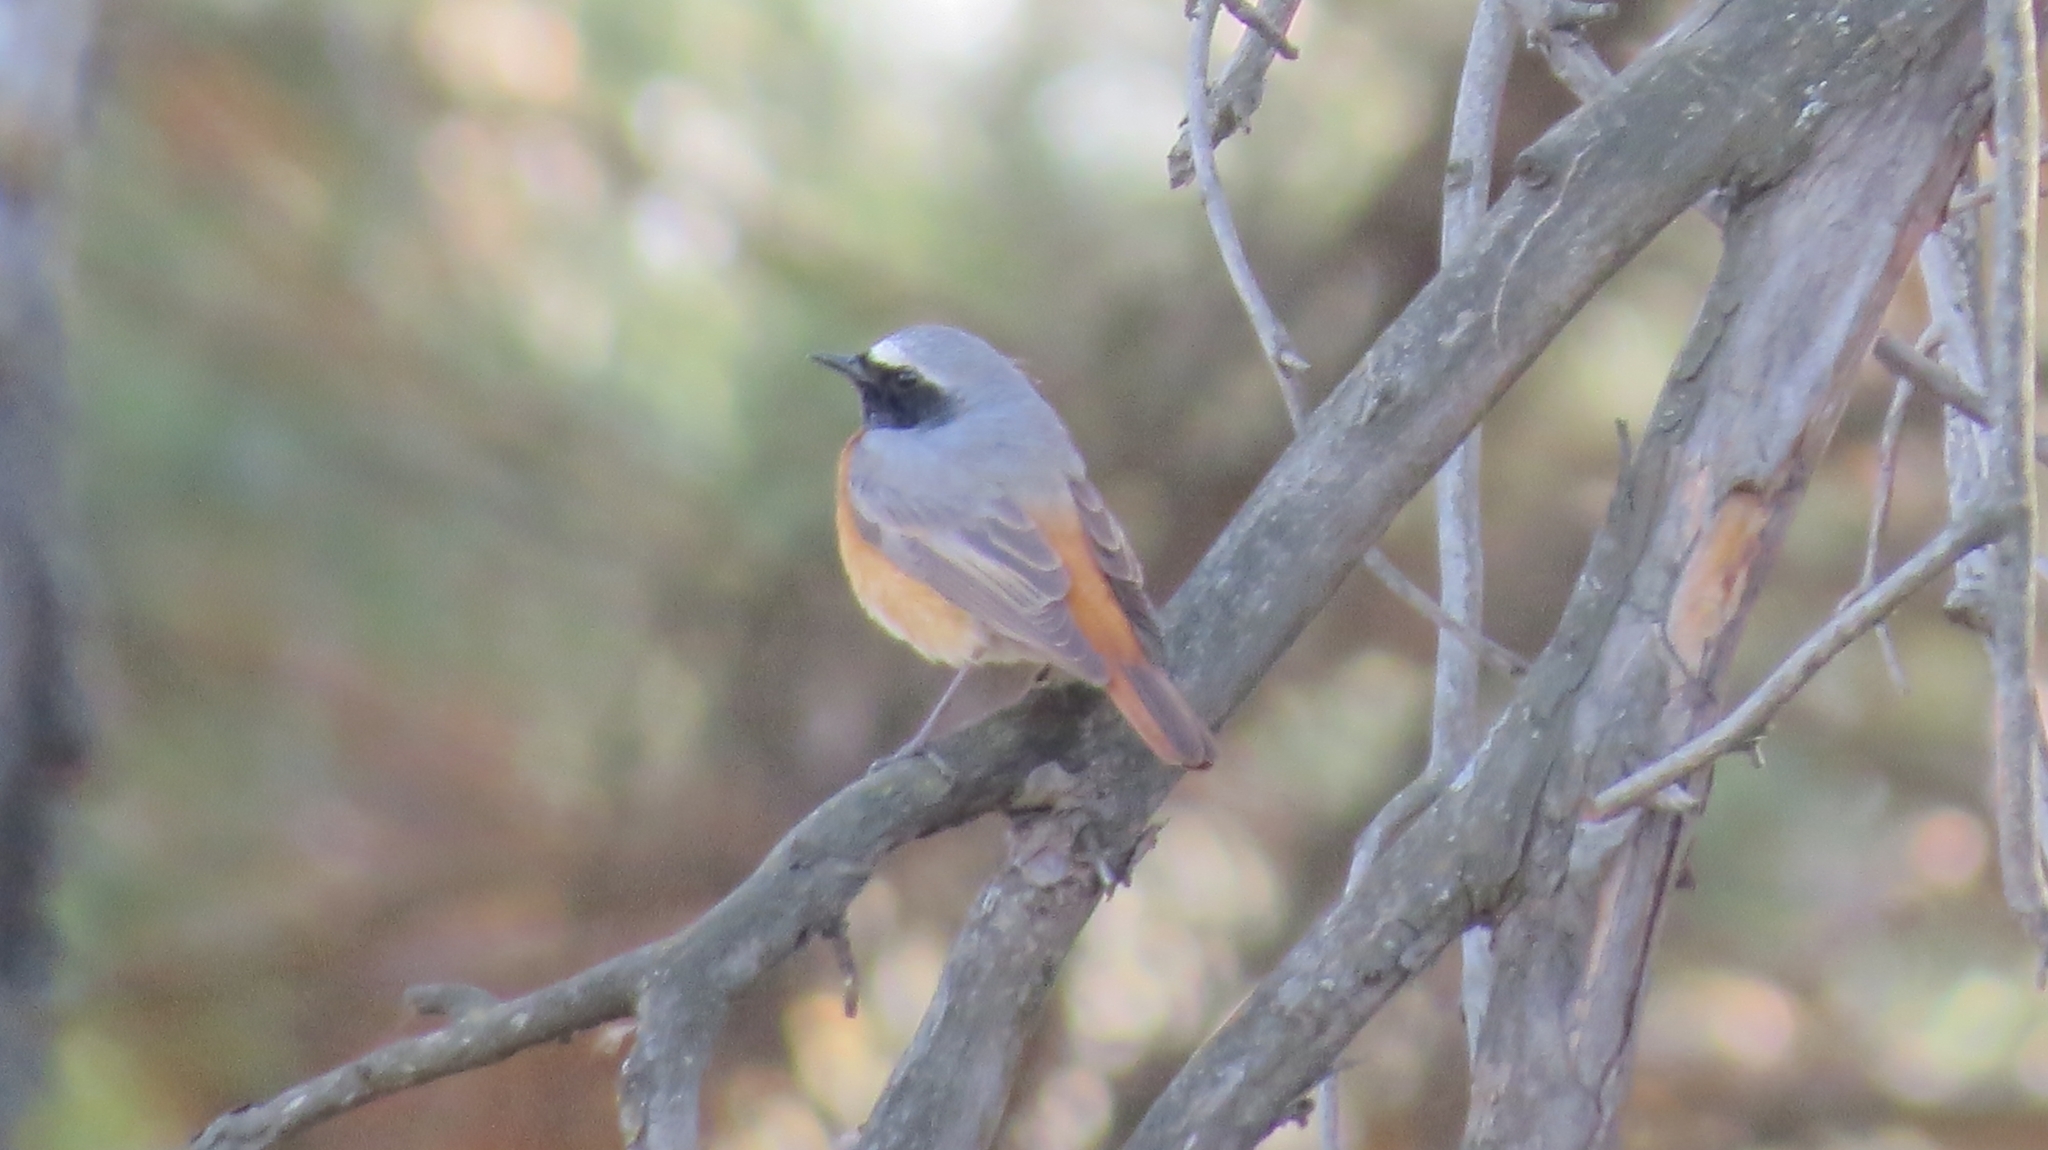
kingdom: Animalia
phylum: Chordata
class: Aves
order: Passeriformes
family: Muscicapidae
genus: Phoenicurus
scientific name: Phoenicurus phoenicurus
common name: Common redstart
